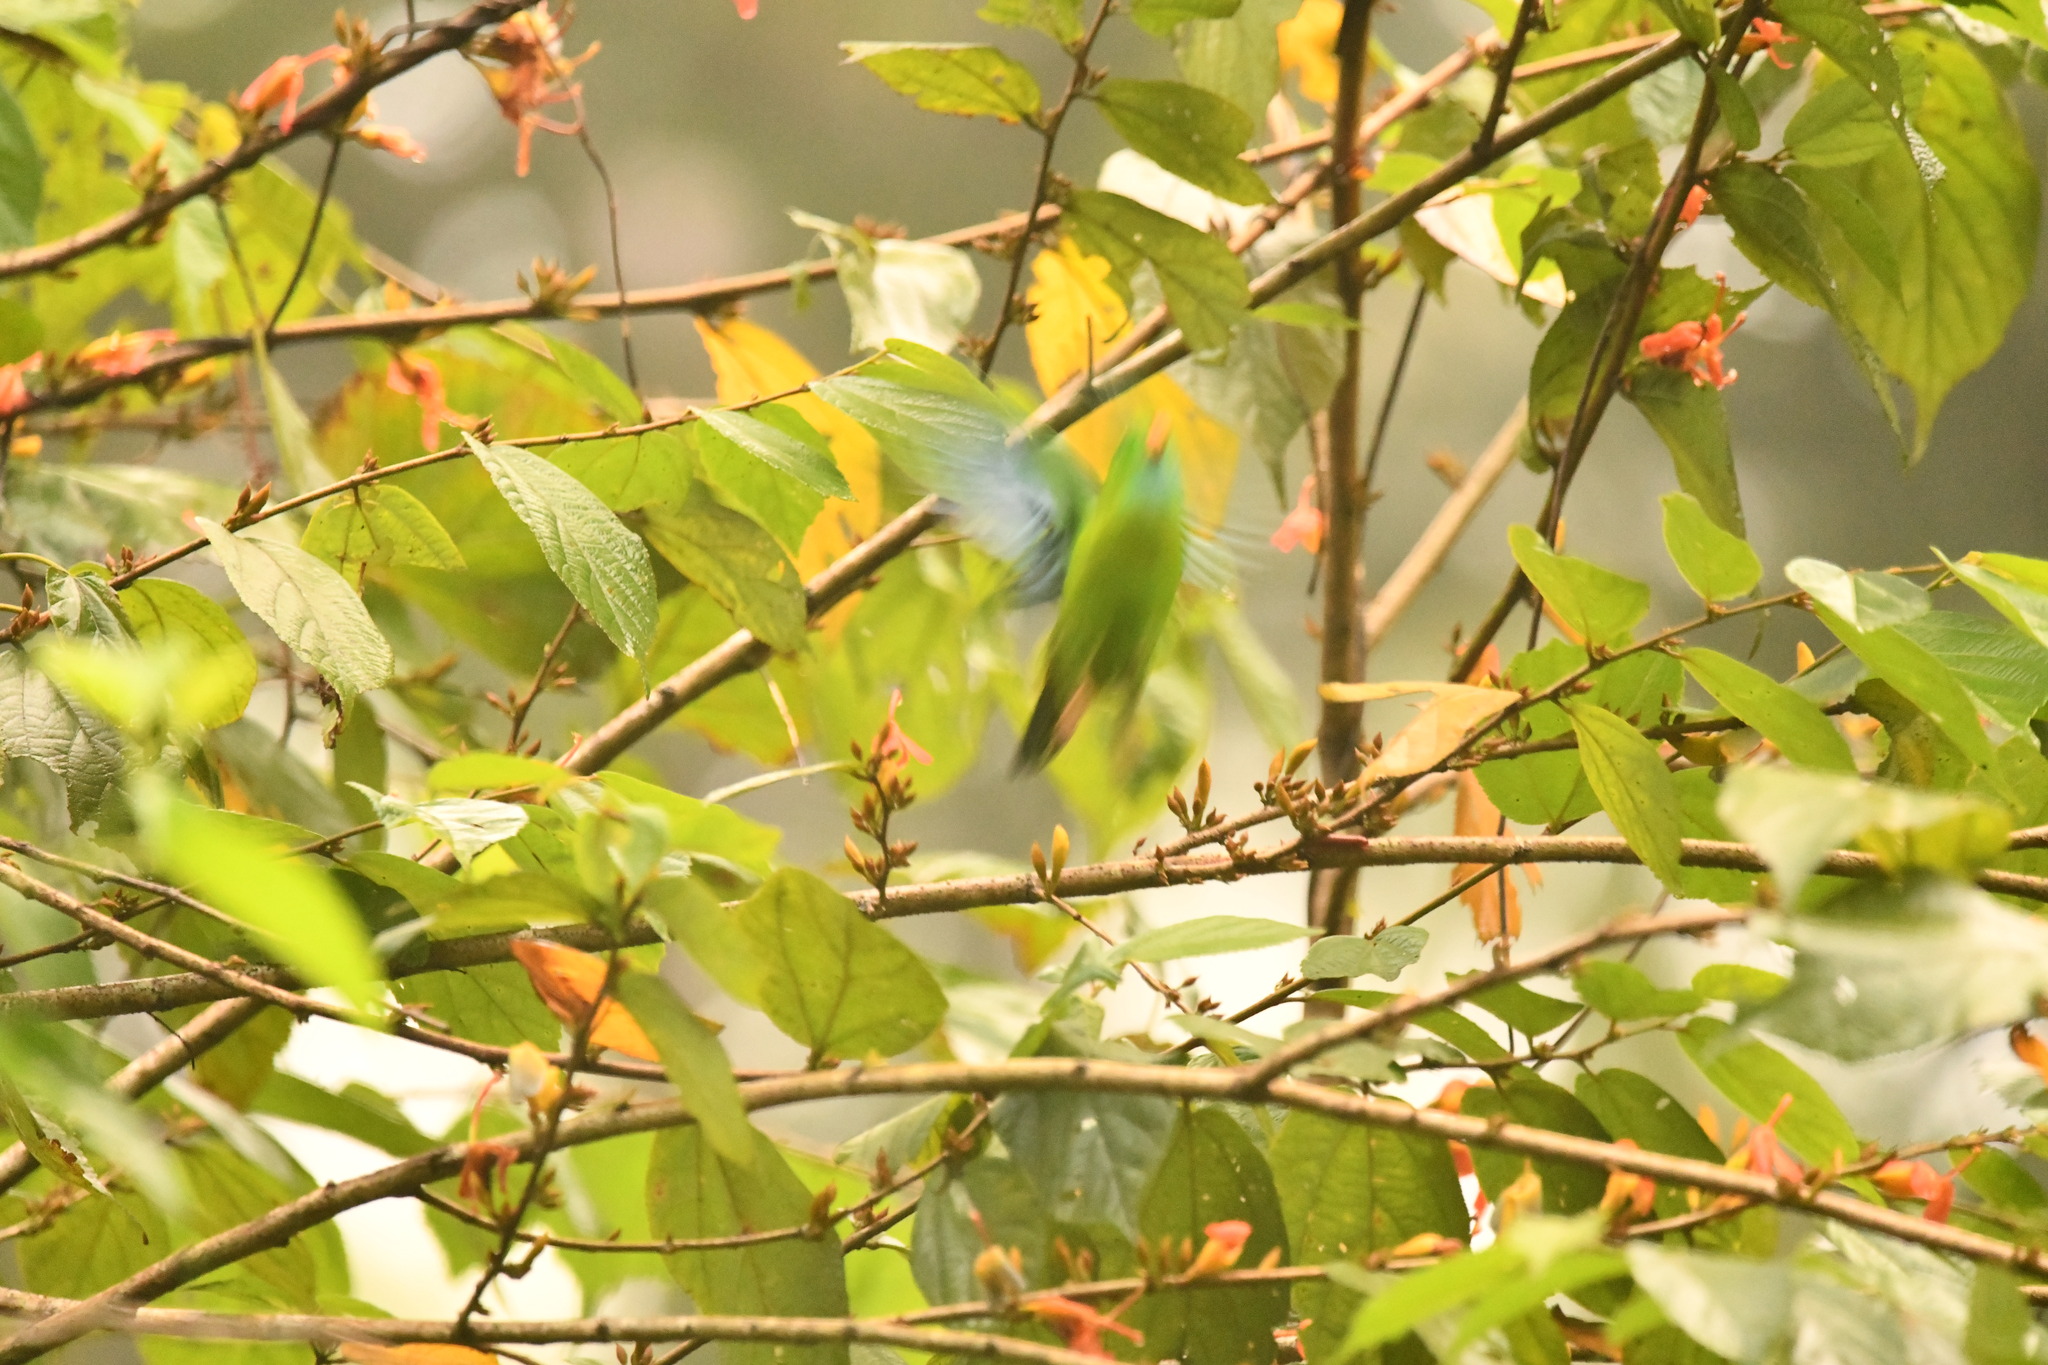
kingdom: Animalia
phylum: Chordata
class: Aves
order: Psittaciformes
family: Psittacidae
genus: Loriculus
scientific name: Loriculus vernalis
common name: Vernal hanging parrot
